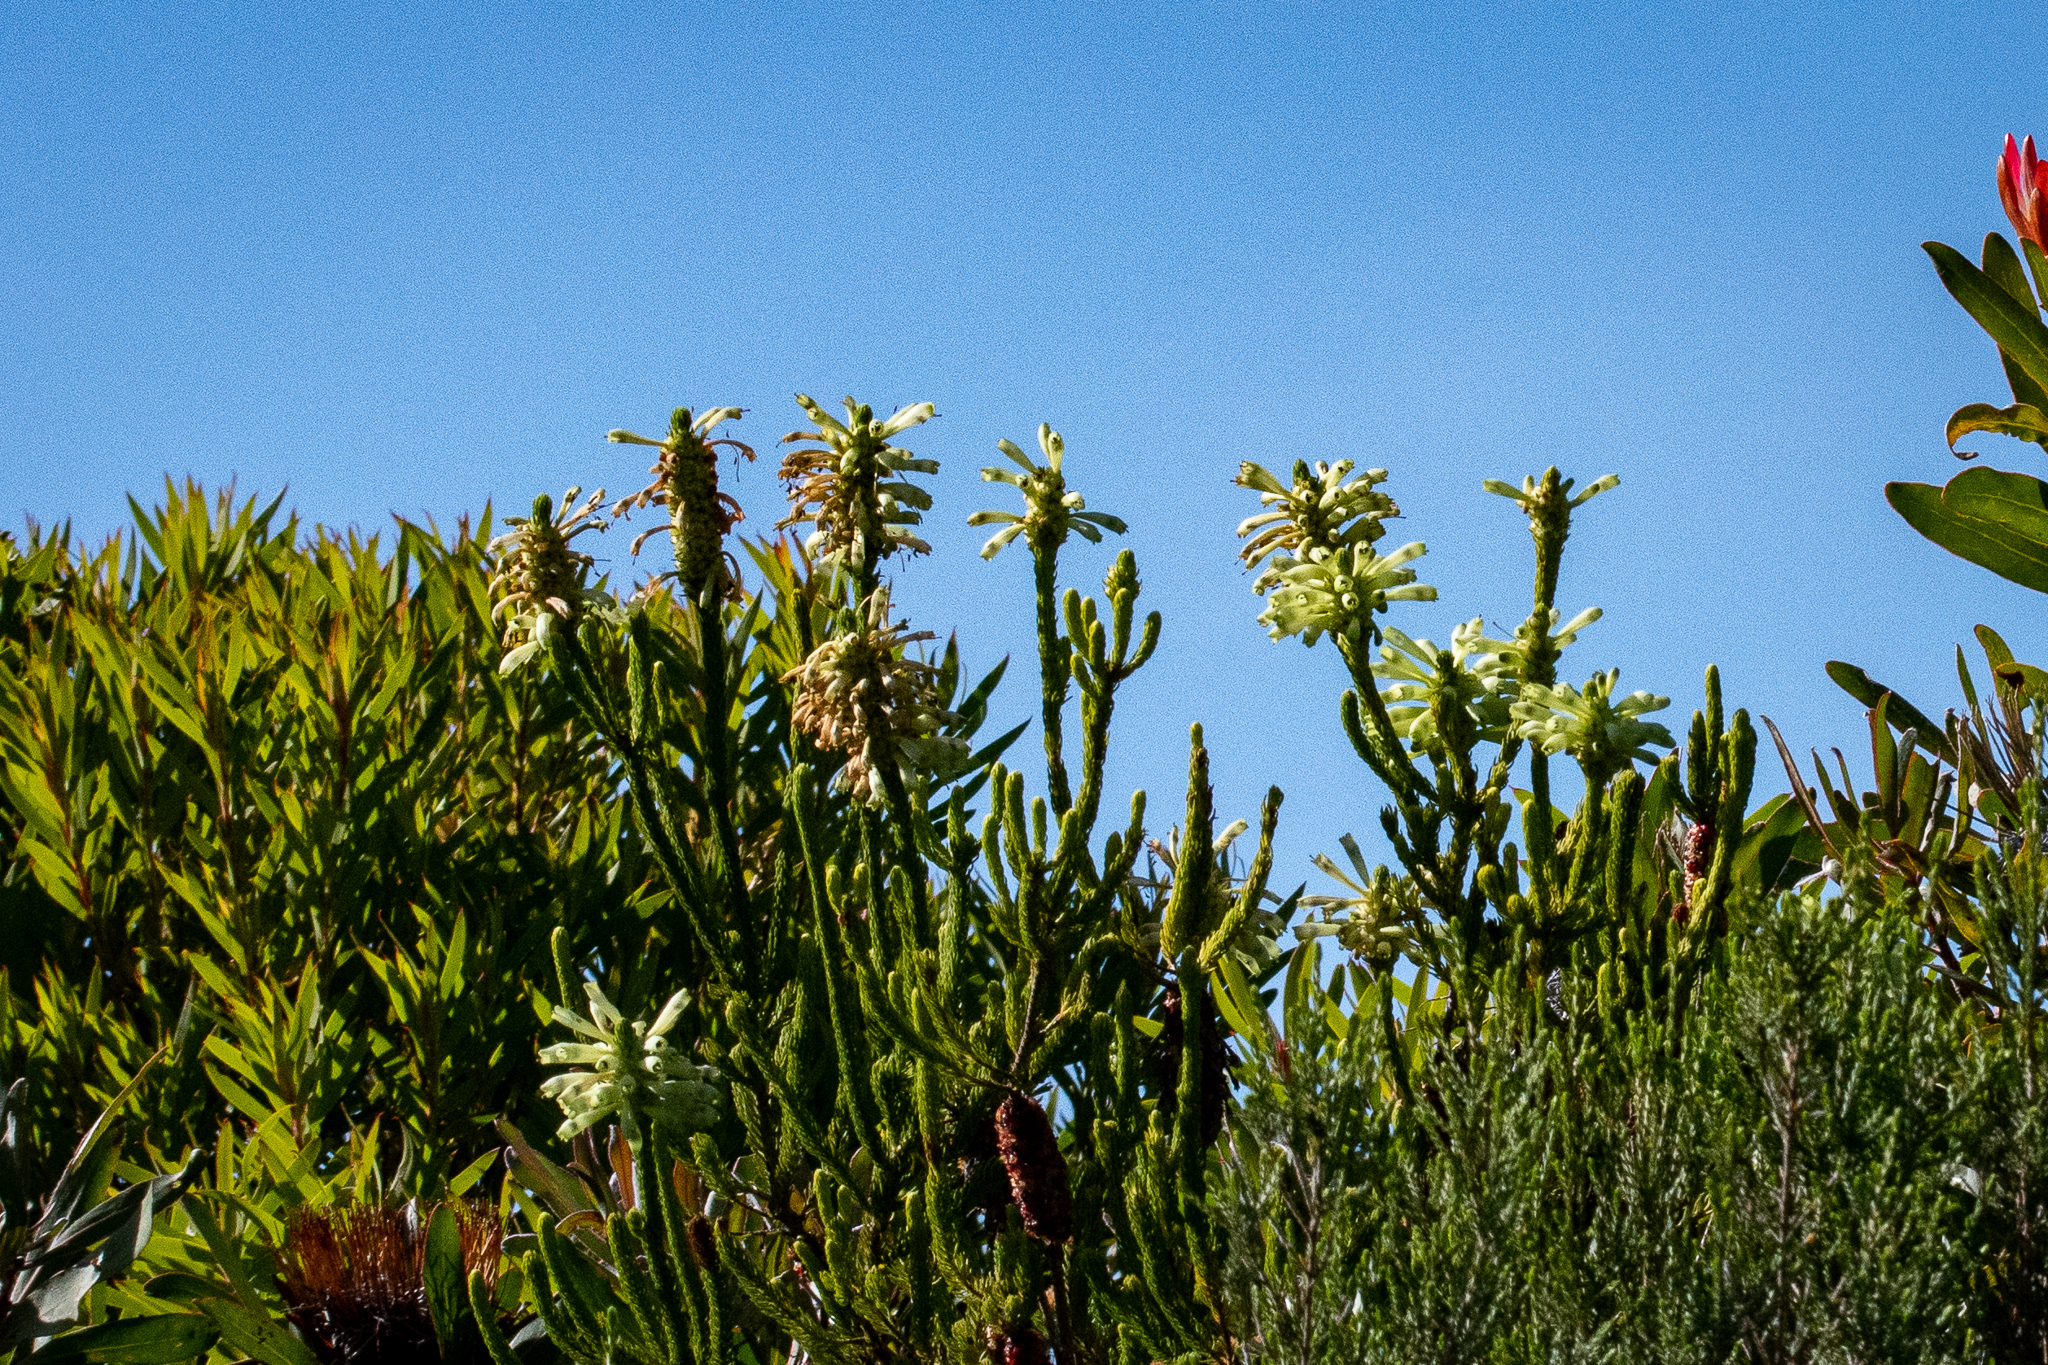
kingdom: Plantae
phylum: Tracheophyta
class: Magnoliopsida
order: Ericales
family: Ericaceae
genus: Erica
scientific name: Erica sessiliflora
